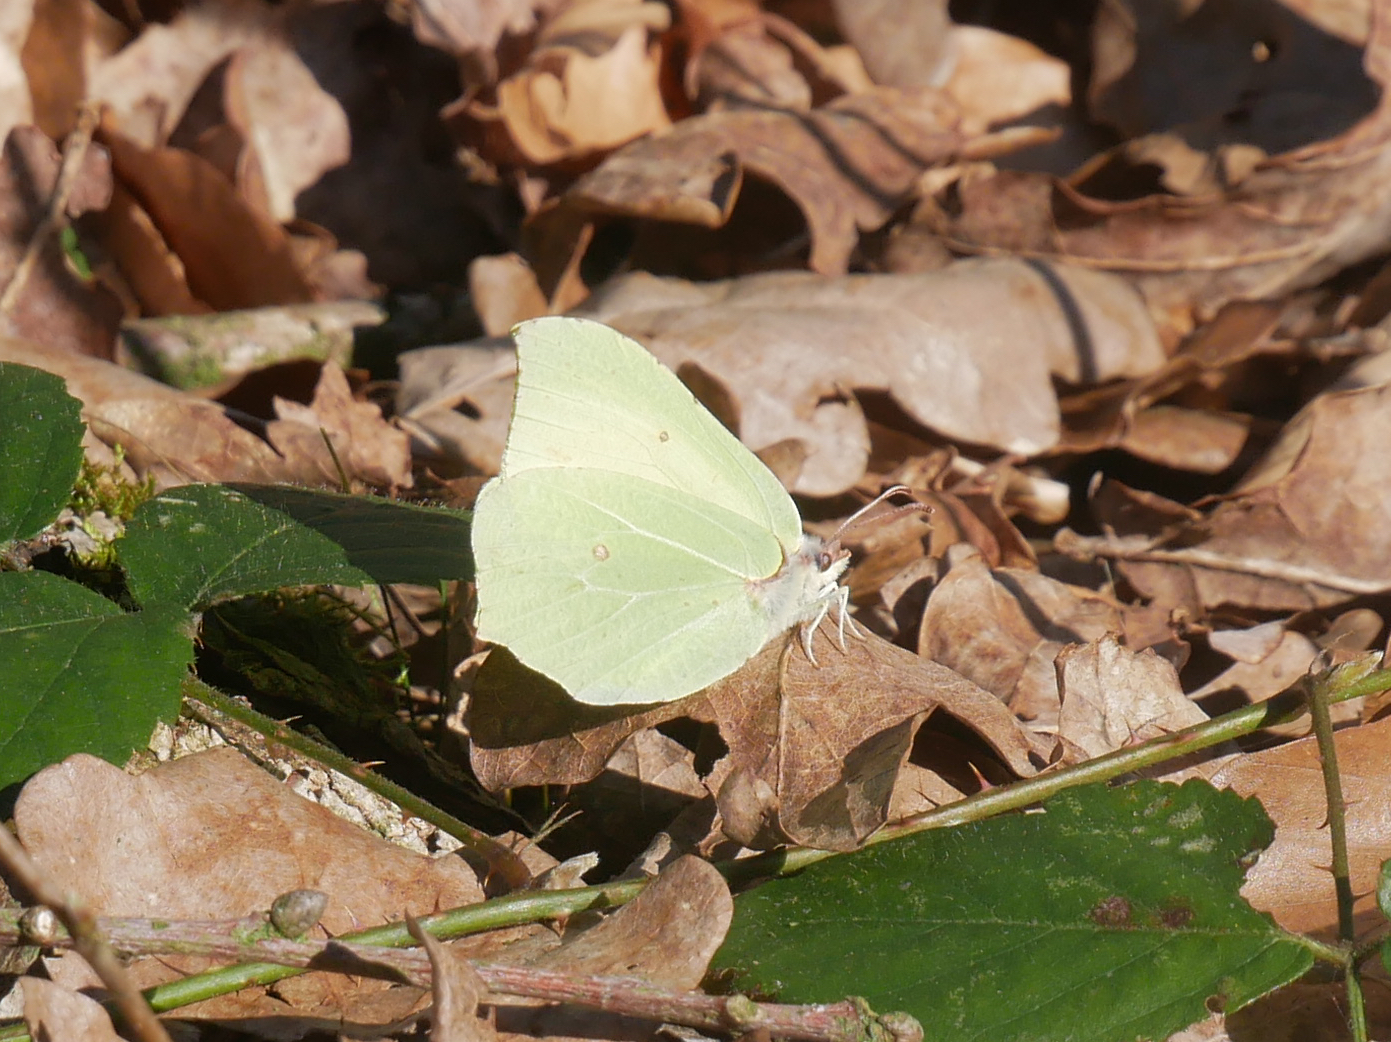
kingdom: Animalia
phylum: Arthropoda
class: Insecta
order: Lepidoptera
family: Pieridae
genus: Gonepteryx
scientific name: Gonepteryx rhamni
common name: Brimstone
